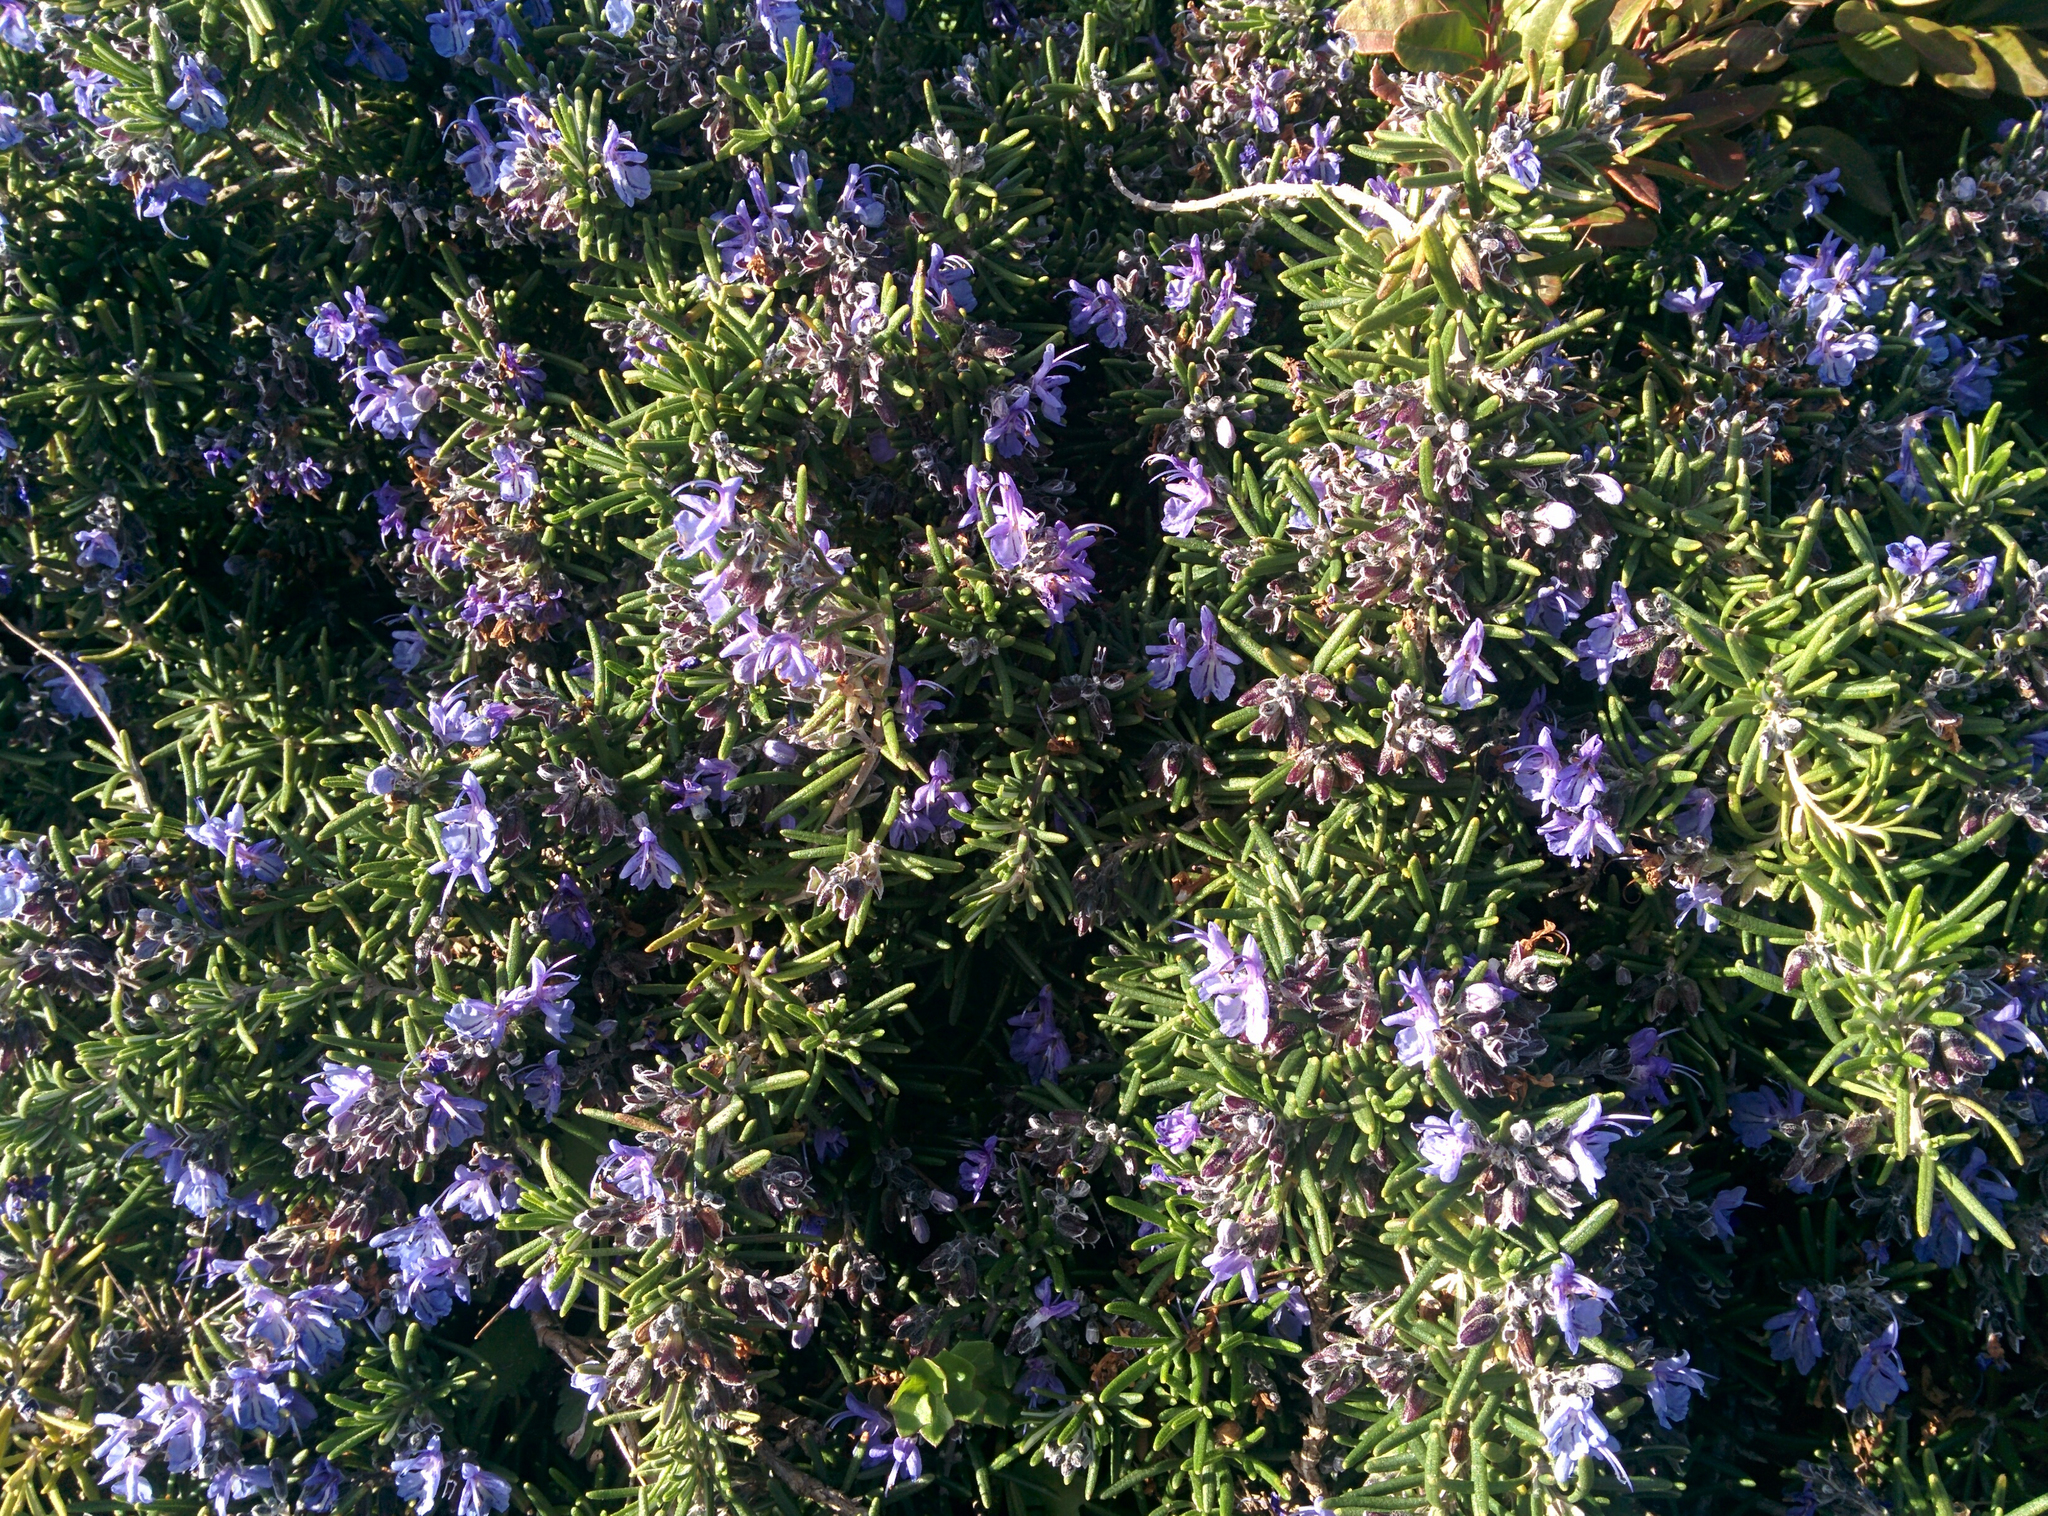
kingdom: Plantae
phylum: Tracheophyta
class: Magnoliopsida
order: Lamiales
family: Lamiaceae
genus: Salvia
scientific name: Salvia rosmarinus
